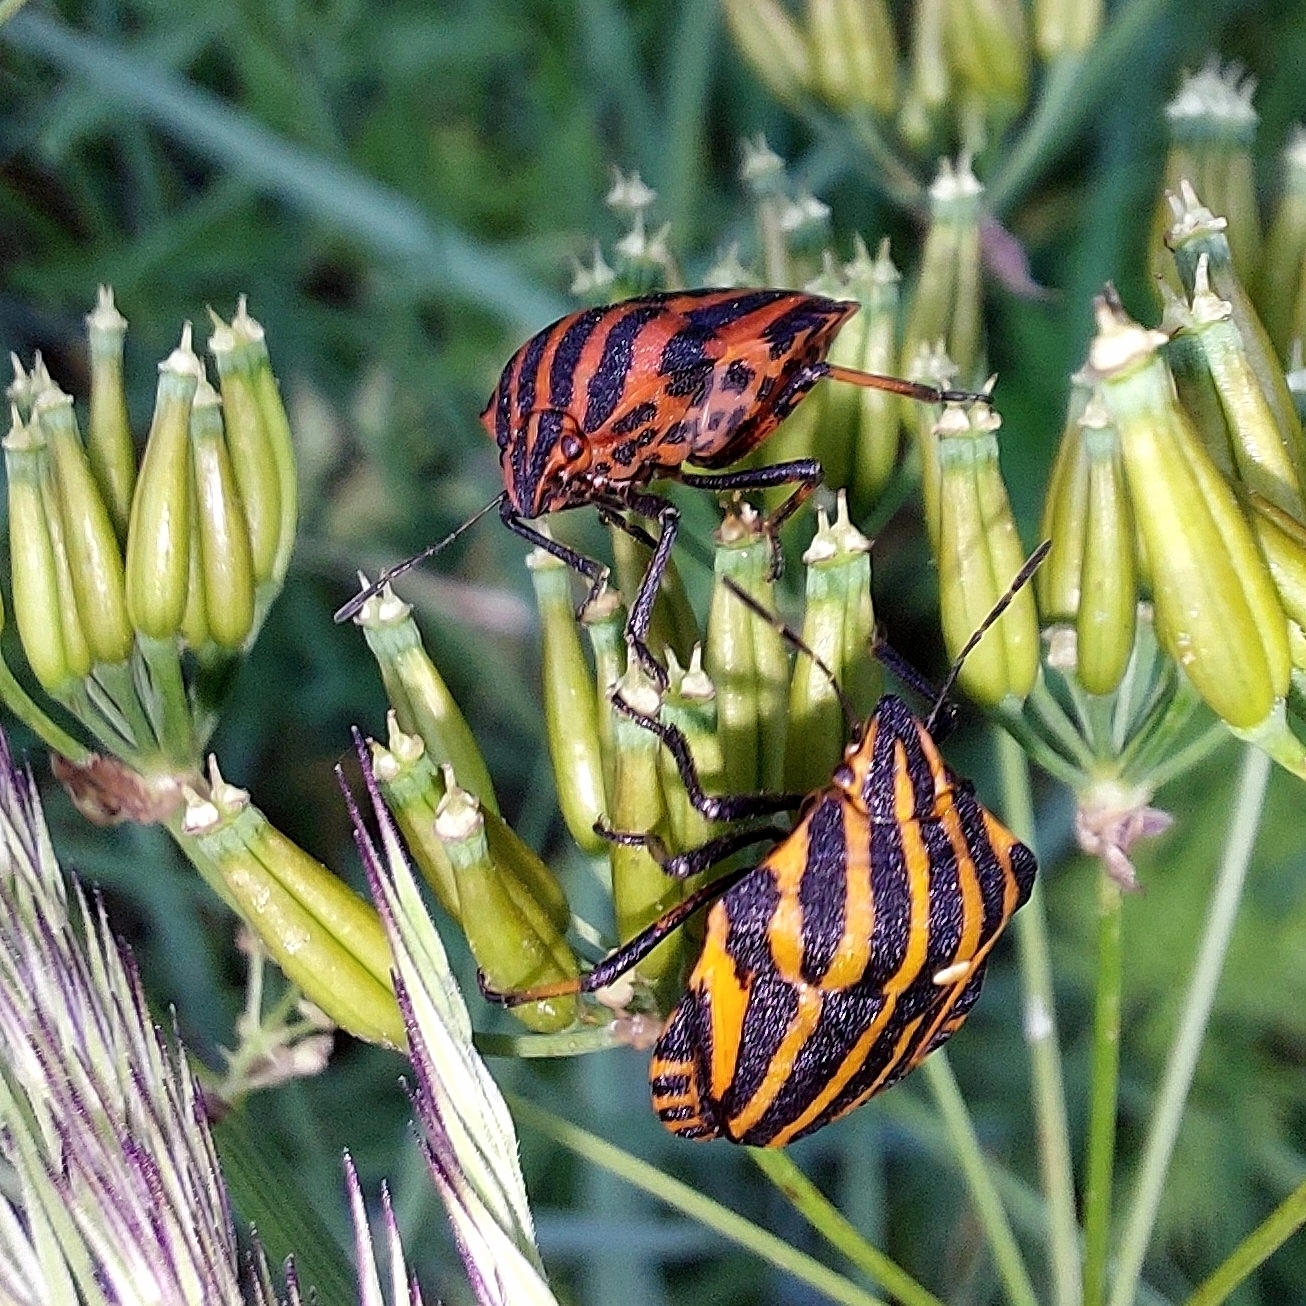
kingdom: Animalia
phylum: Arthropoda
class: Insecta
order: Hemiptera
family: Pentatomidae
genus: Graphosoma
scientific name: Graphosoma italicum
